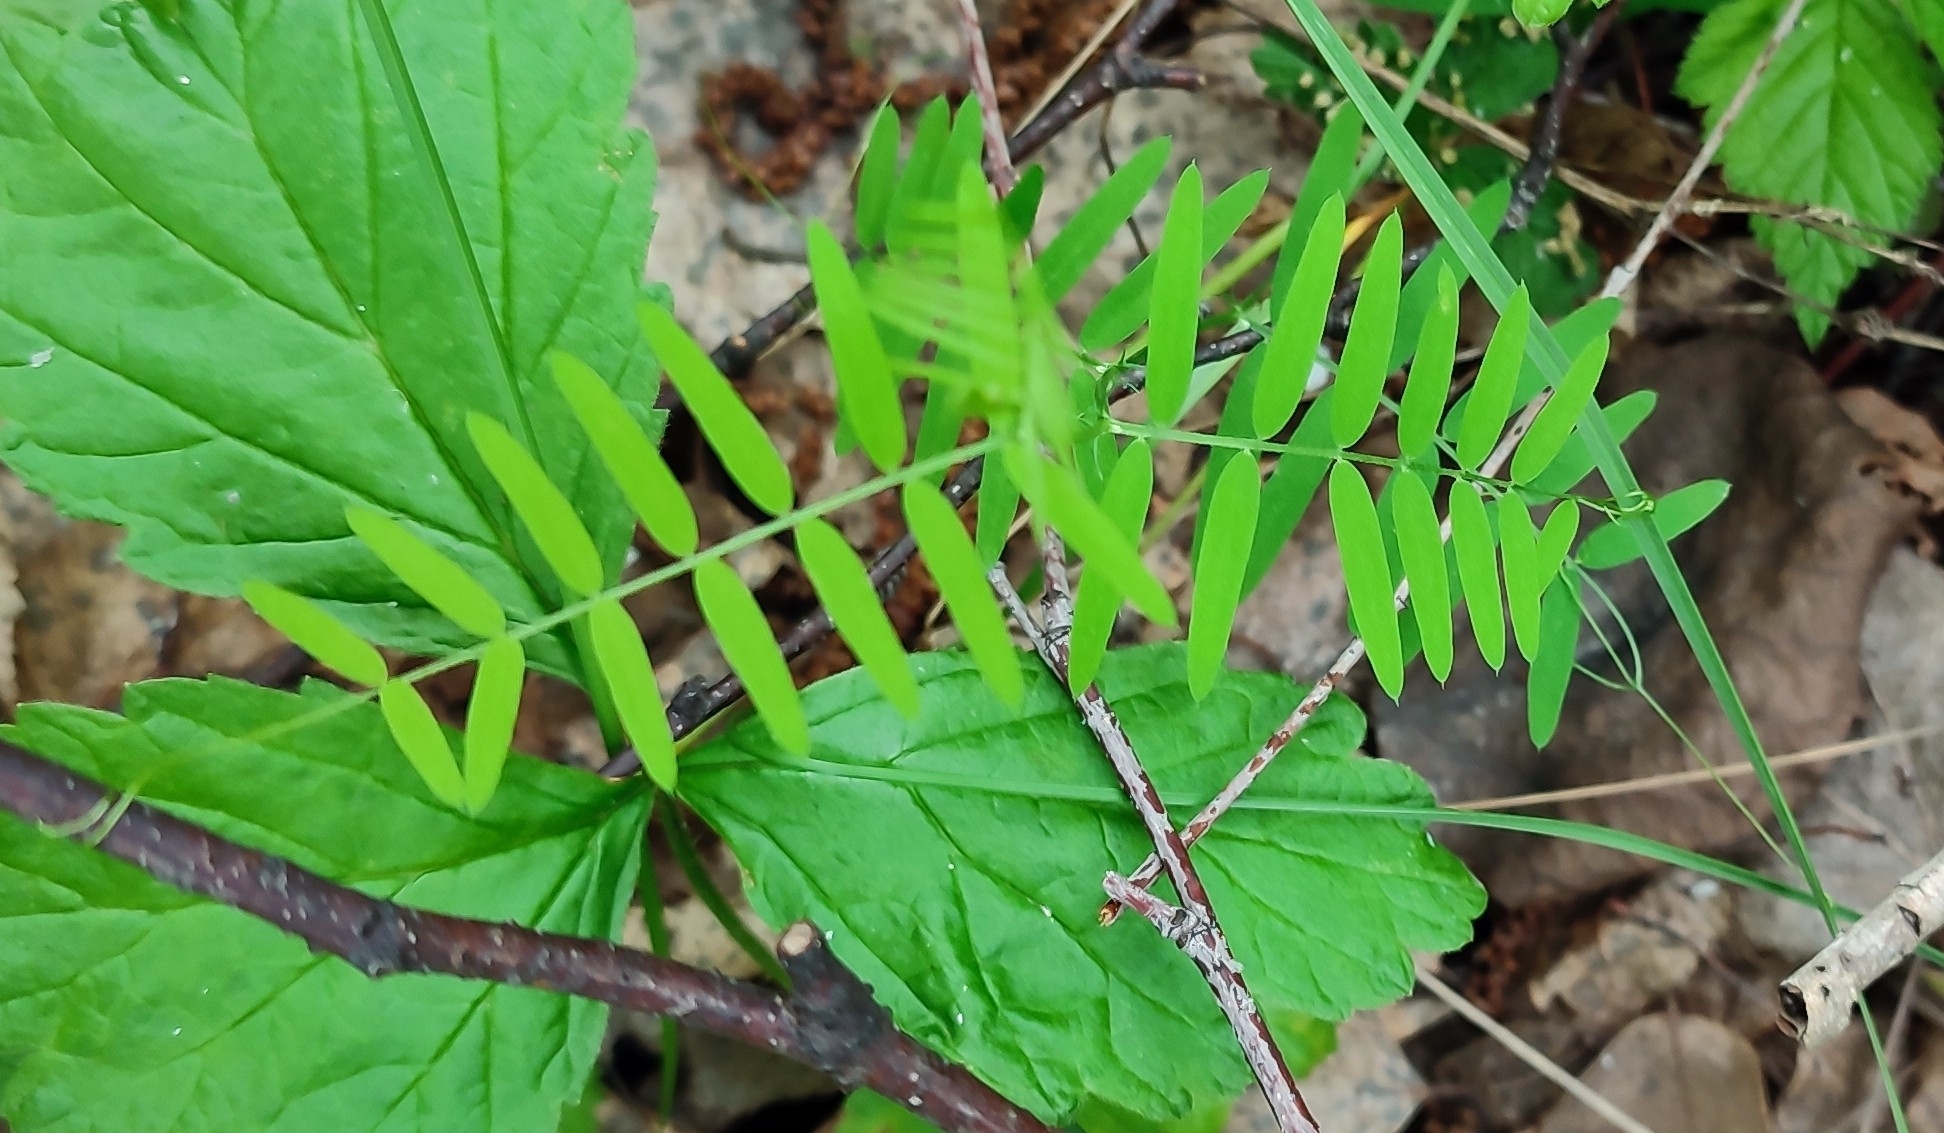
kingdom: Plantae
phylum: Tracheophyta
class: Magnoliopsida
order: Fabales
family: Fabaceae
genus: Vicia
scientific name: Vicia cracca
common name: Bird vetch
